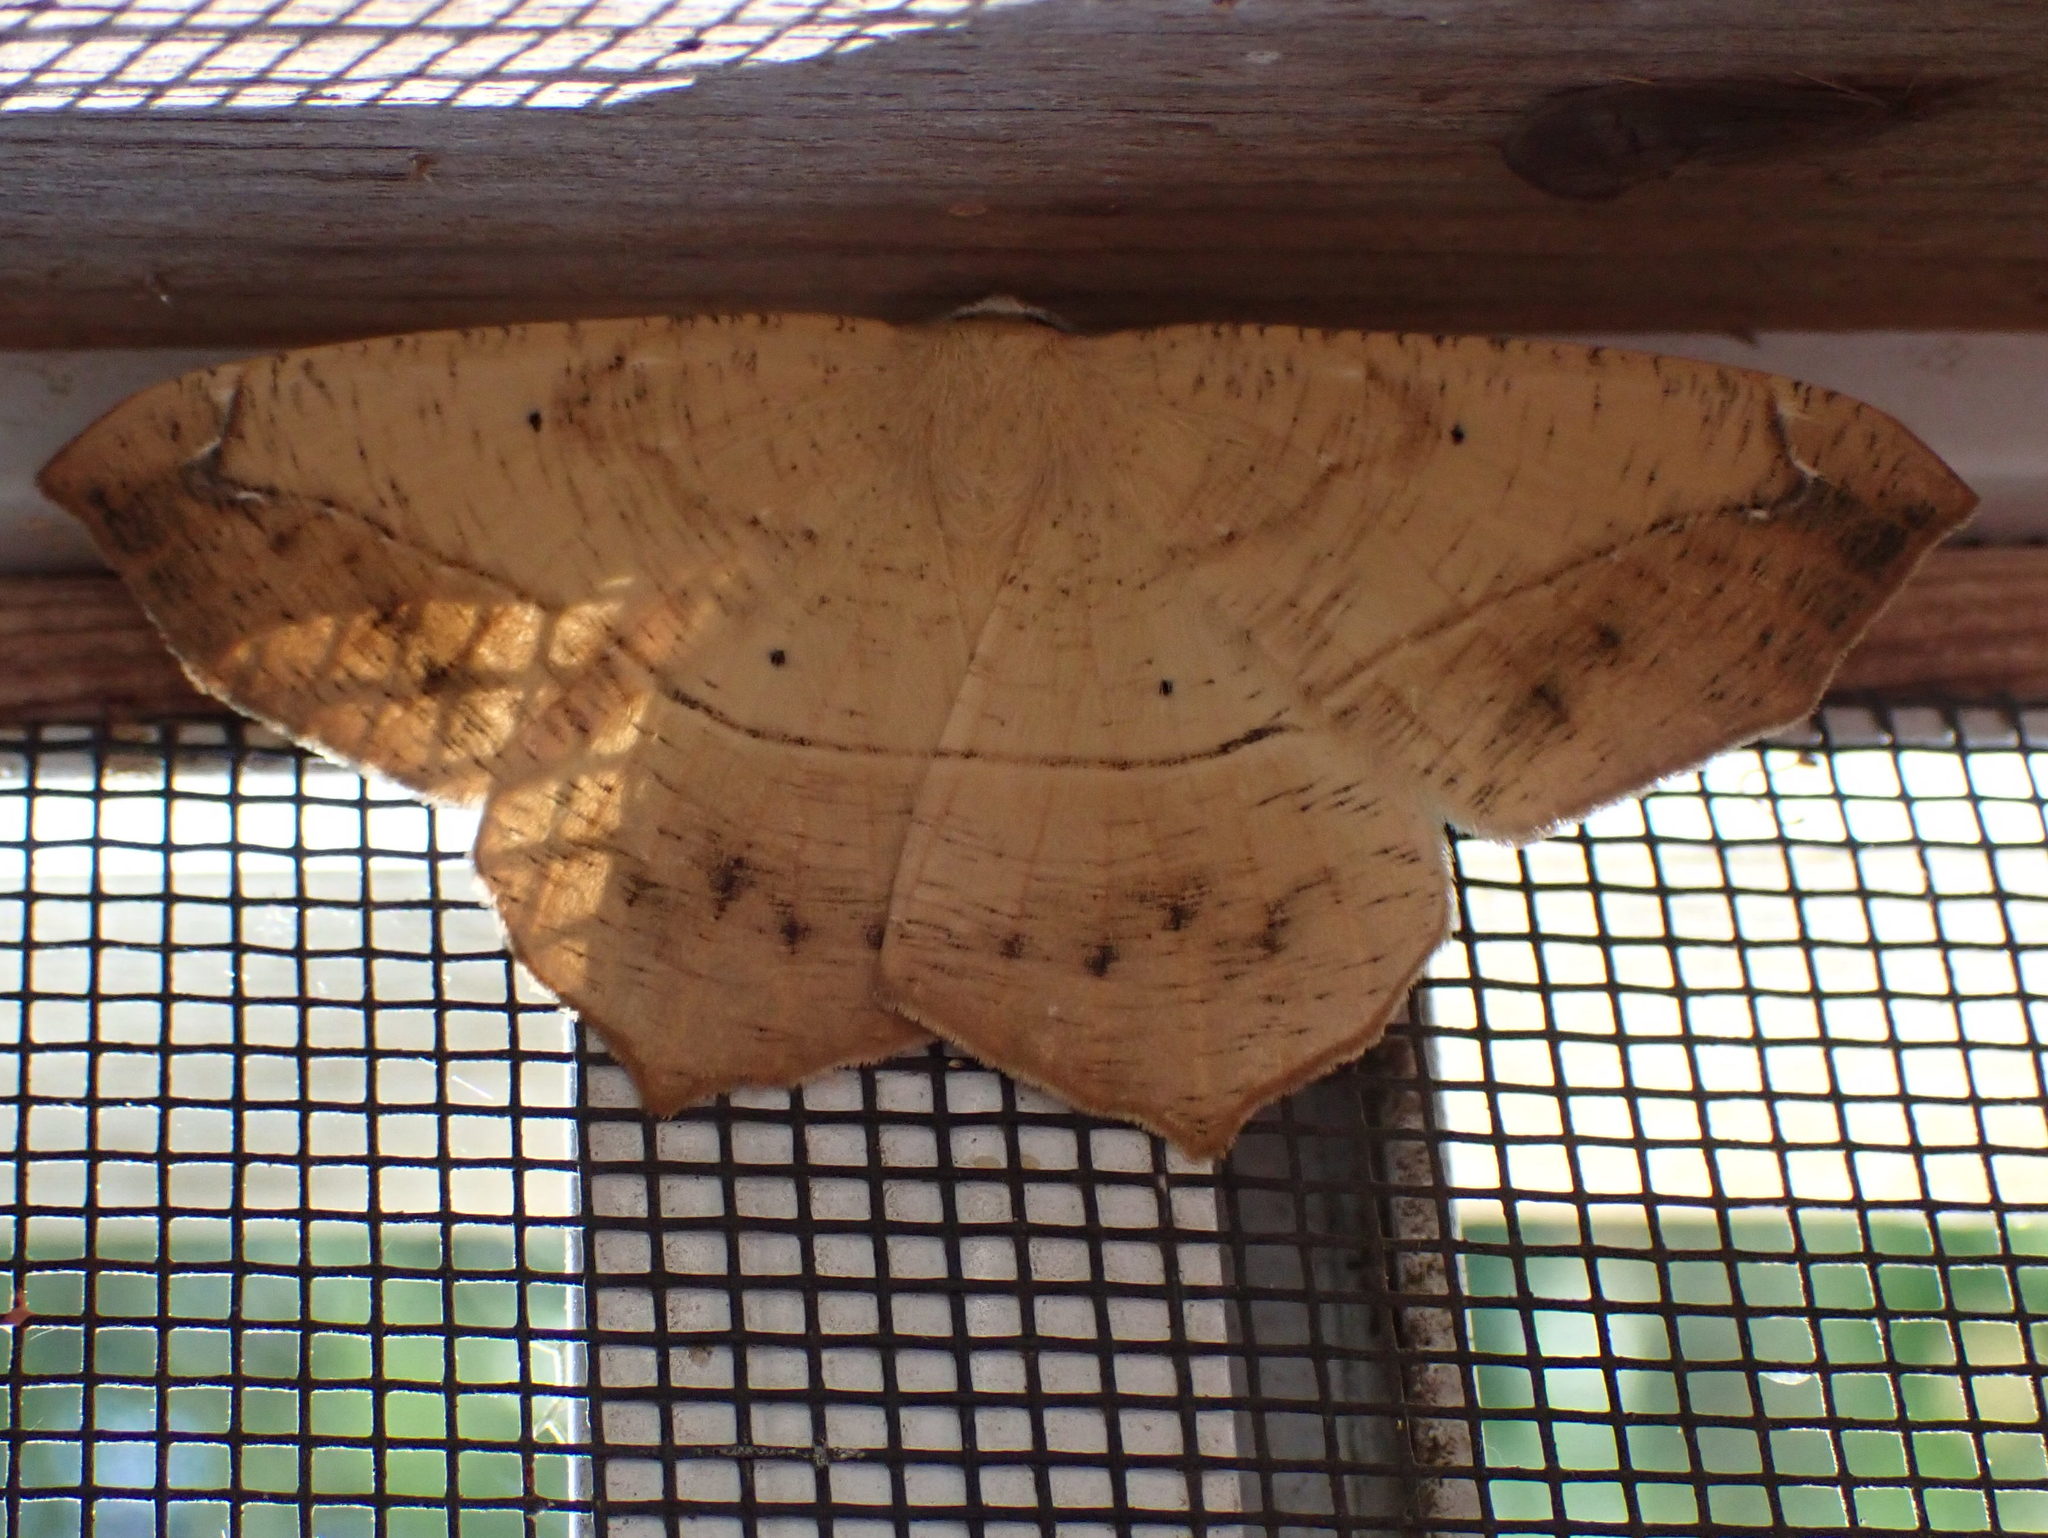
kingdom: Animalia
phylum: Arthropoda
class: Insecta
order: Lepidoptera
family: Geometridae
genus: Prochoerodes
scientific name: Prochoerodes lineola
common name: Large maple spanworm
